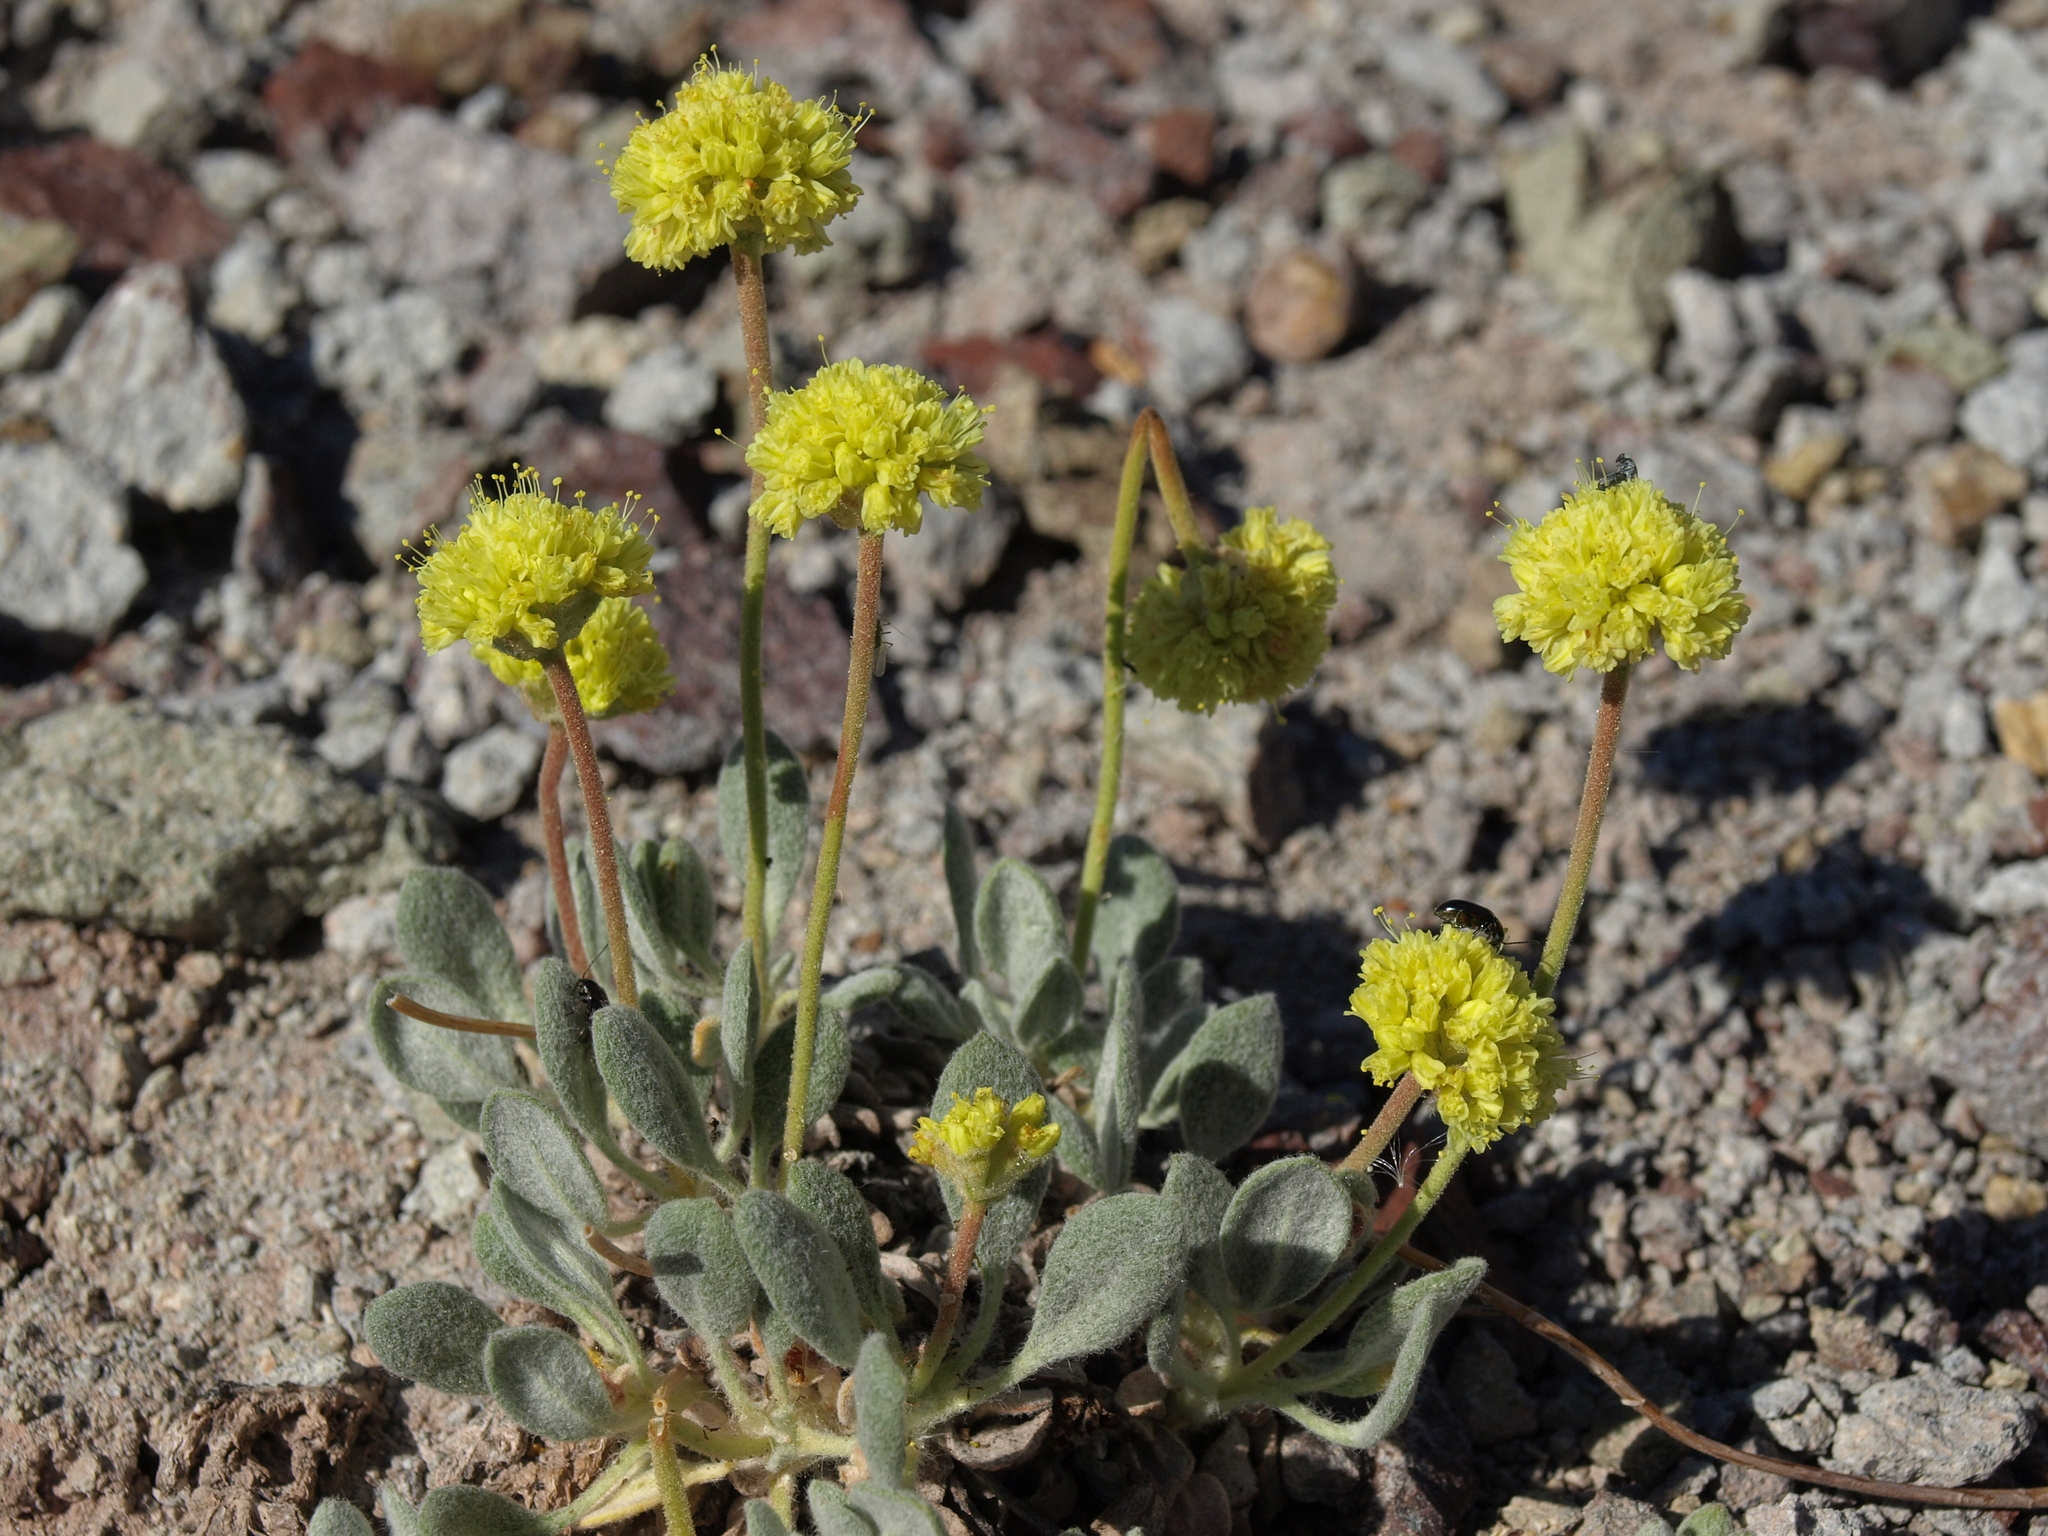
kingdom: Plantae
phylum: Tracheophyta
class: Magnoliopsida
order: Caryophyllales
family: Polygonaceae
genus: Eriogonum
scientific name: Eriogonum rosense
